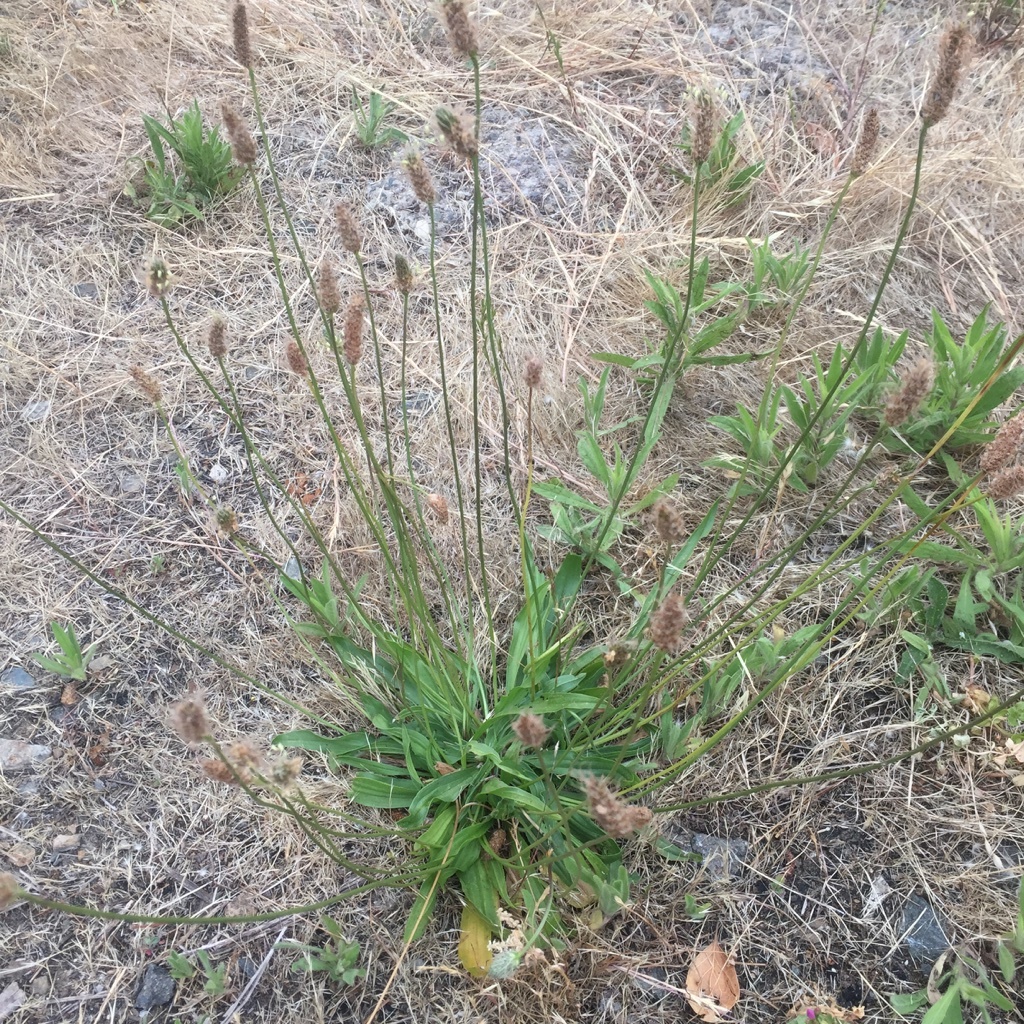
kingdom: Plantae
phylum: Tracheophyta
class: Magnoliopsida
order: Lamiales
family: Plantaginaceae
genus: Plantago
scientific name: Plantago lanceolata
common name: Ribwort plantain
